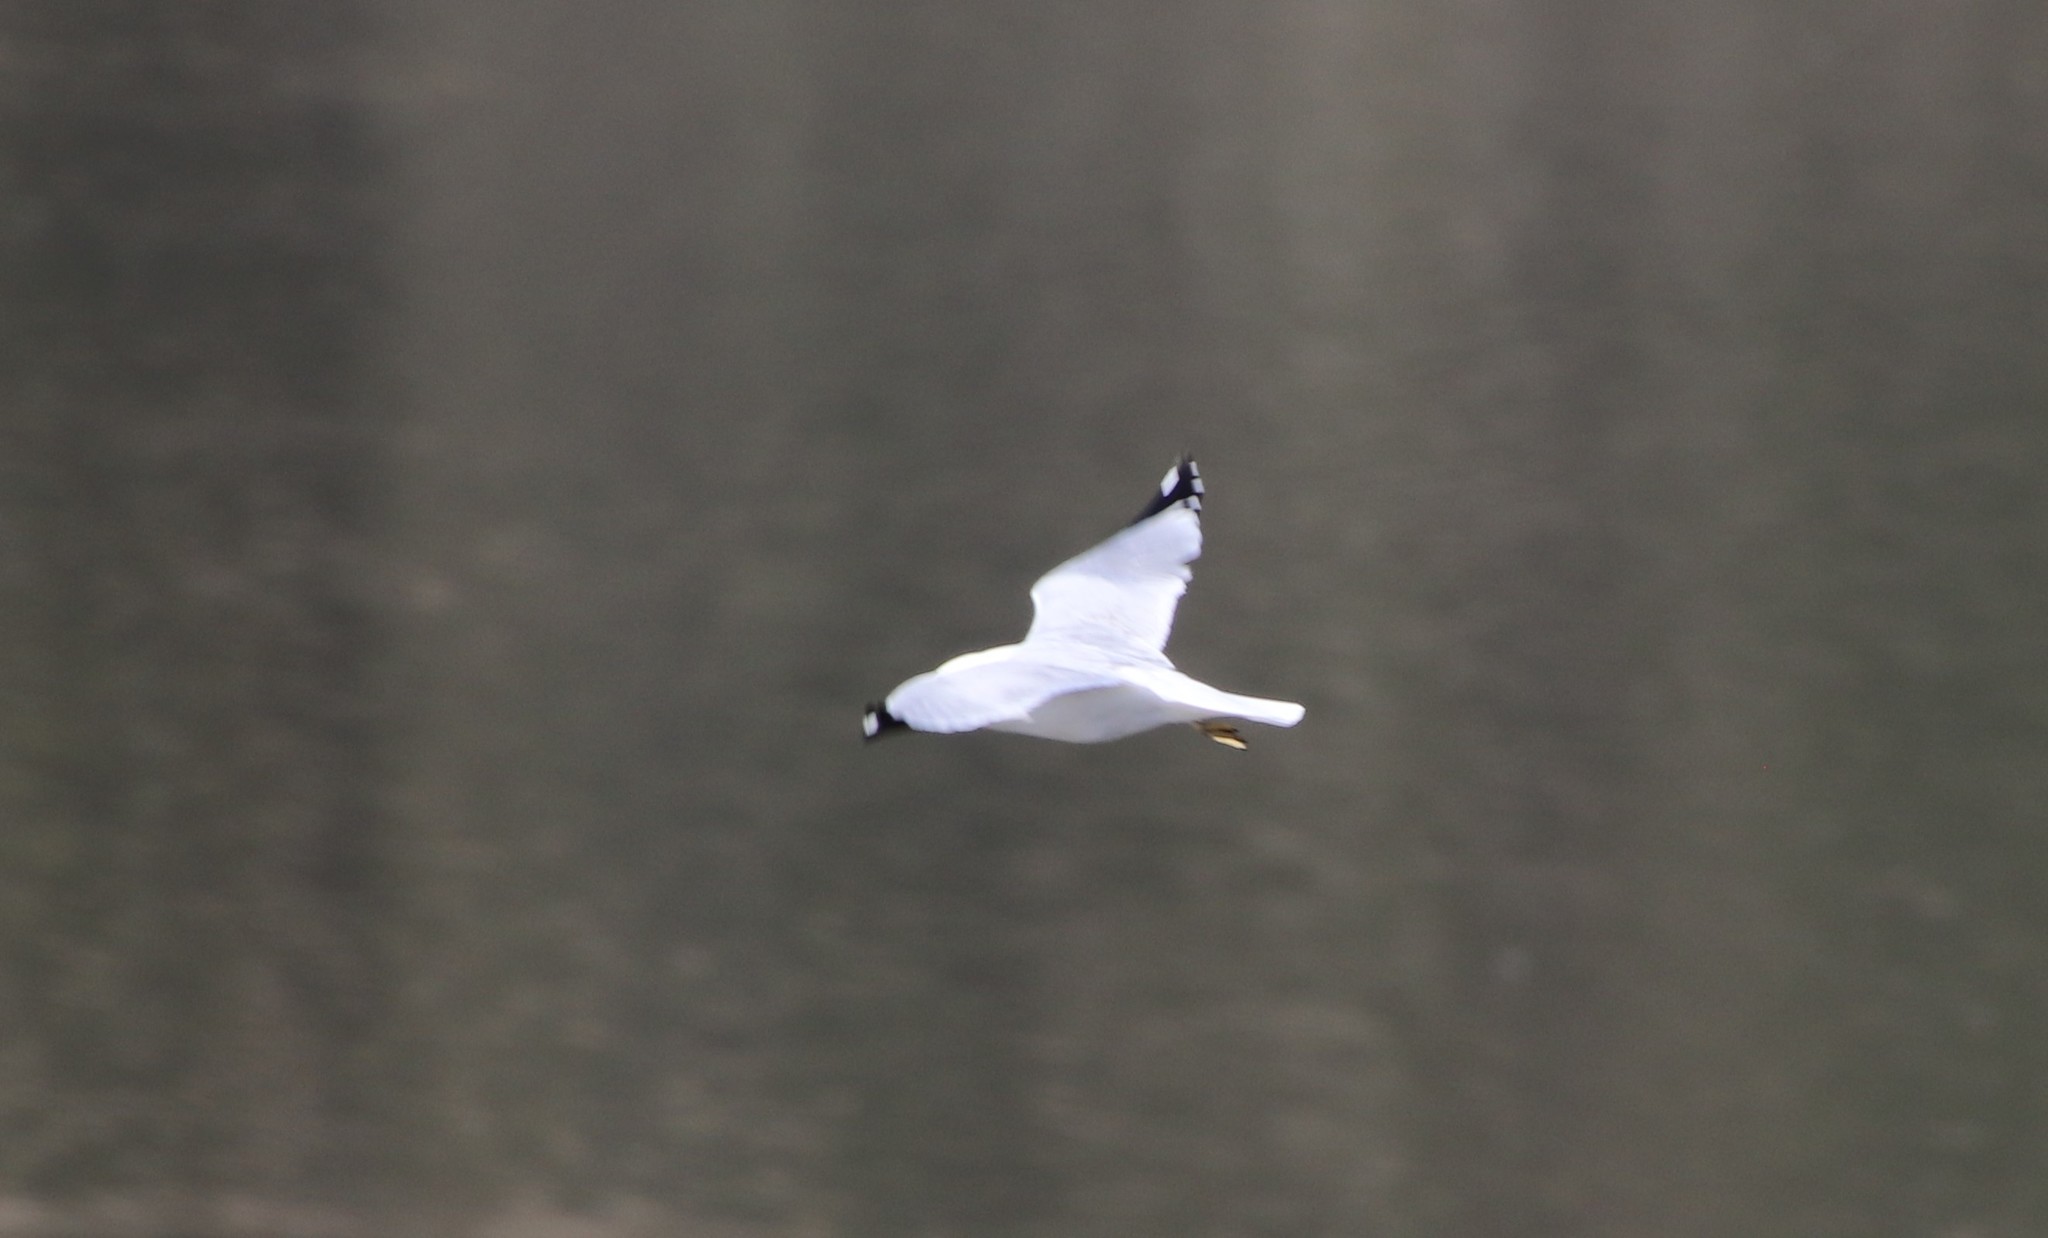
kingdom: Animalia
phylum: Chordata
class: Aves
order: Charadriiformes
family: Laridae
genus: Larus
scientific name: Larus delawarensis
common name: Ring-billed gull
